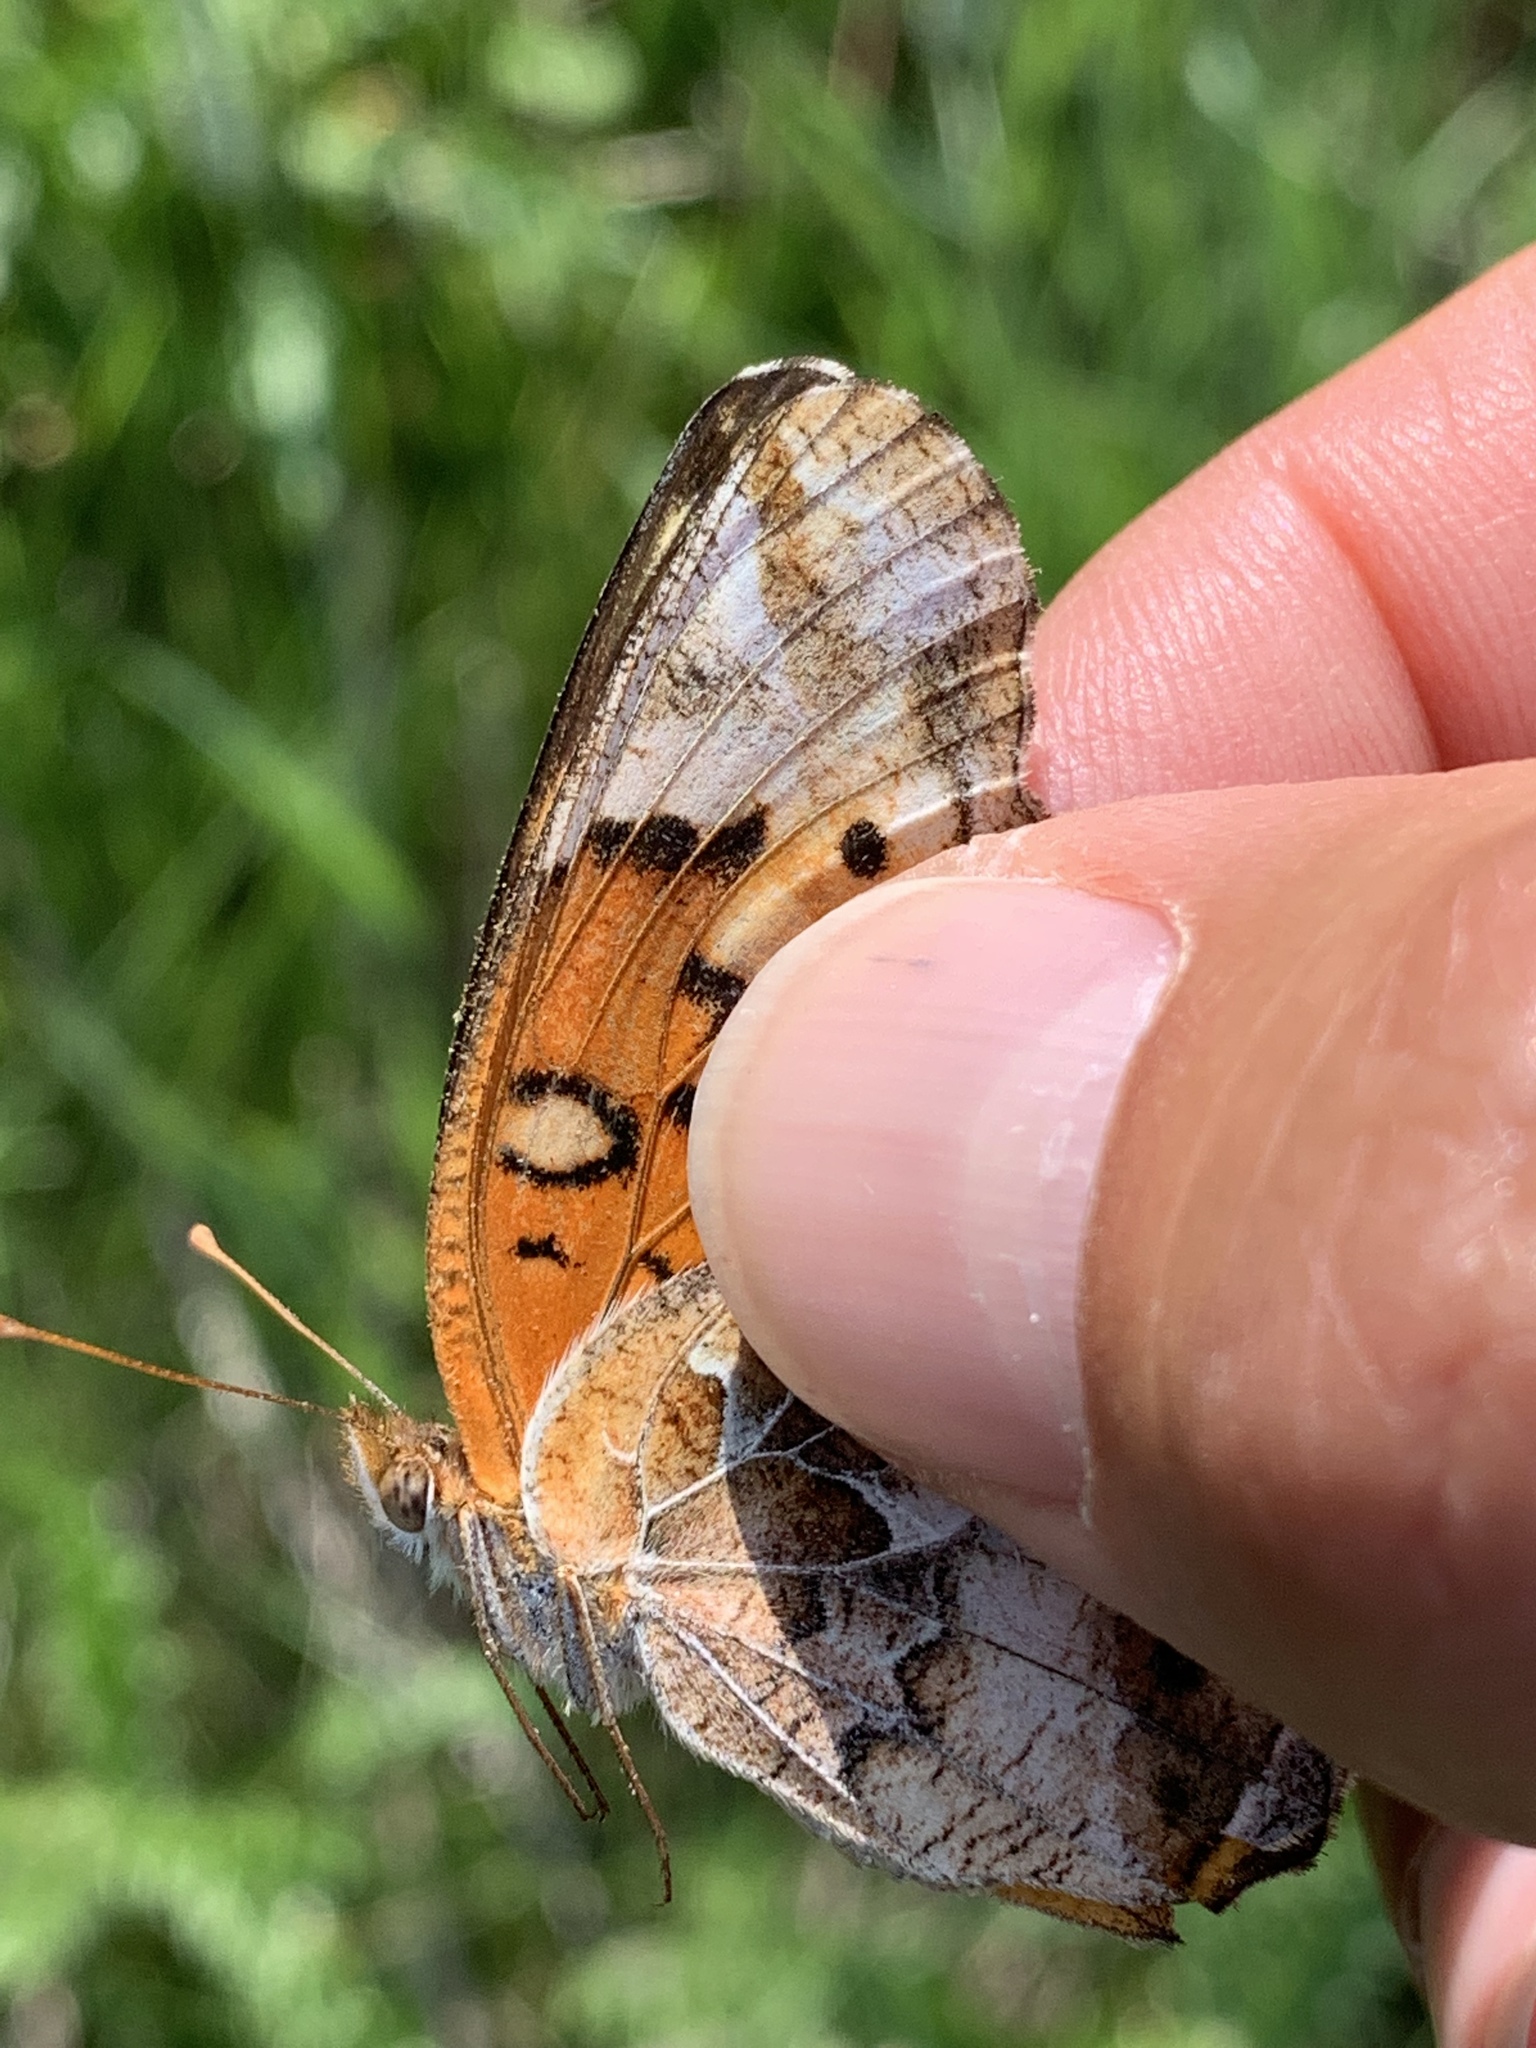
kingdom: Animalia
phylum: Arthropoda
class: Insecta
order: Lepidoptera
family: Nymphalidae
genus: Euptoieta
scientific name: Euptoieta claudia
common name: Variegated fritillary
